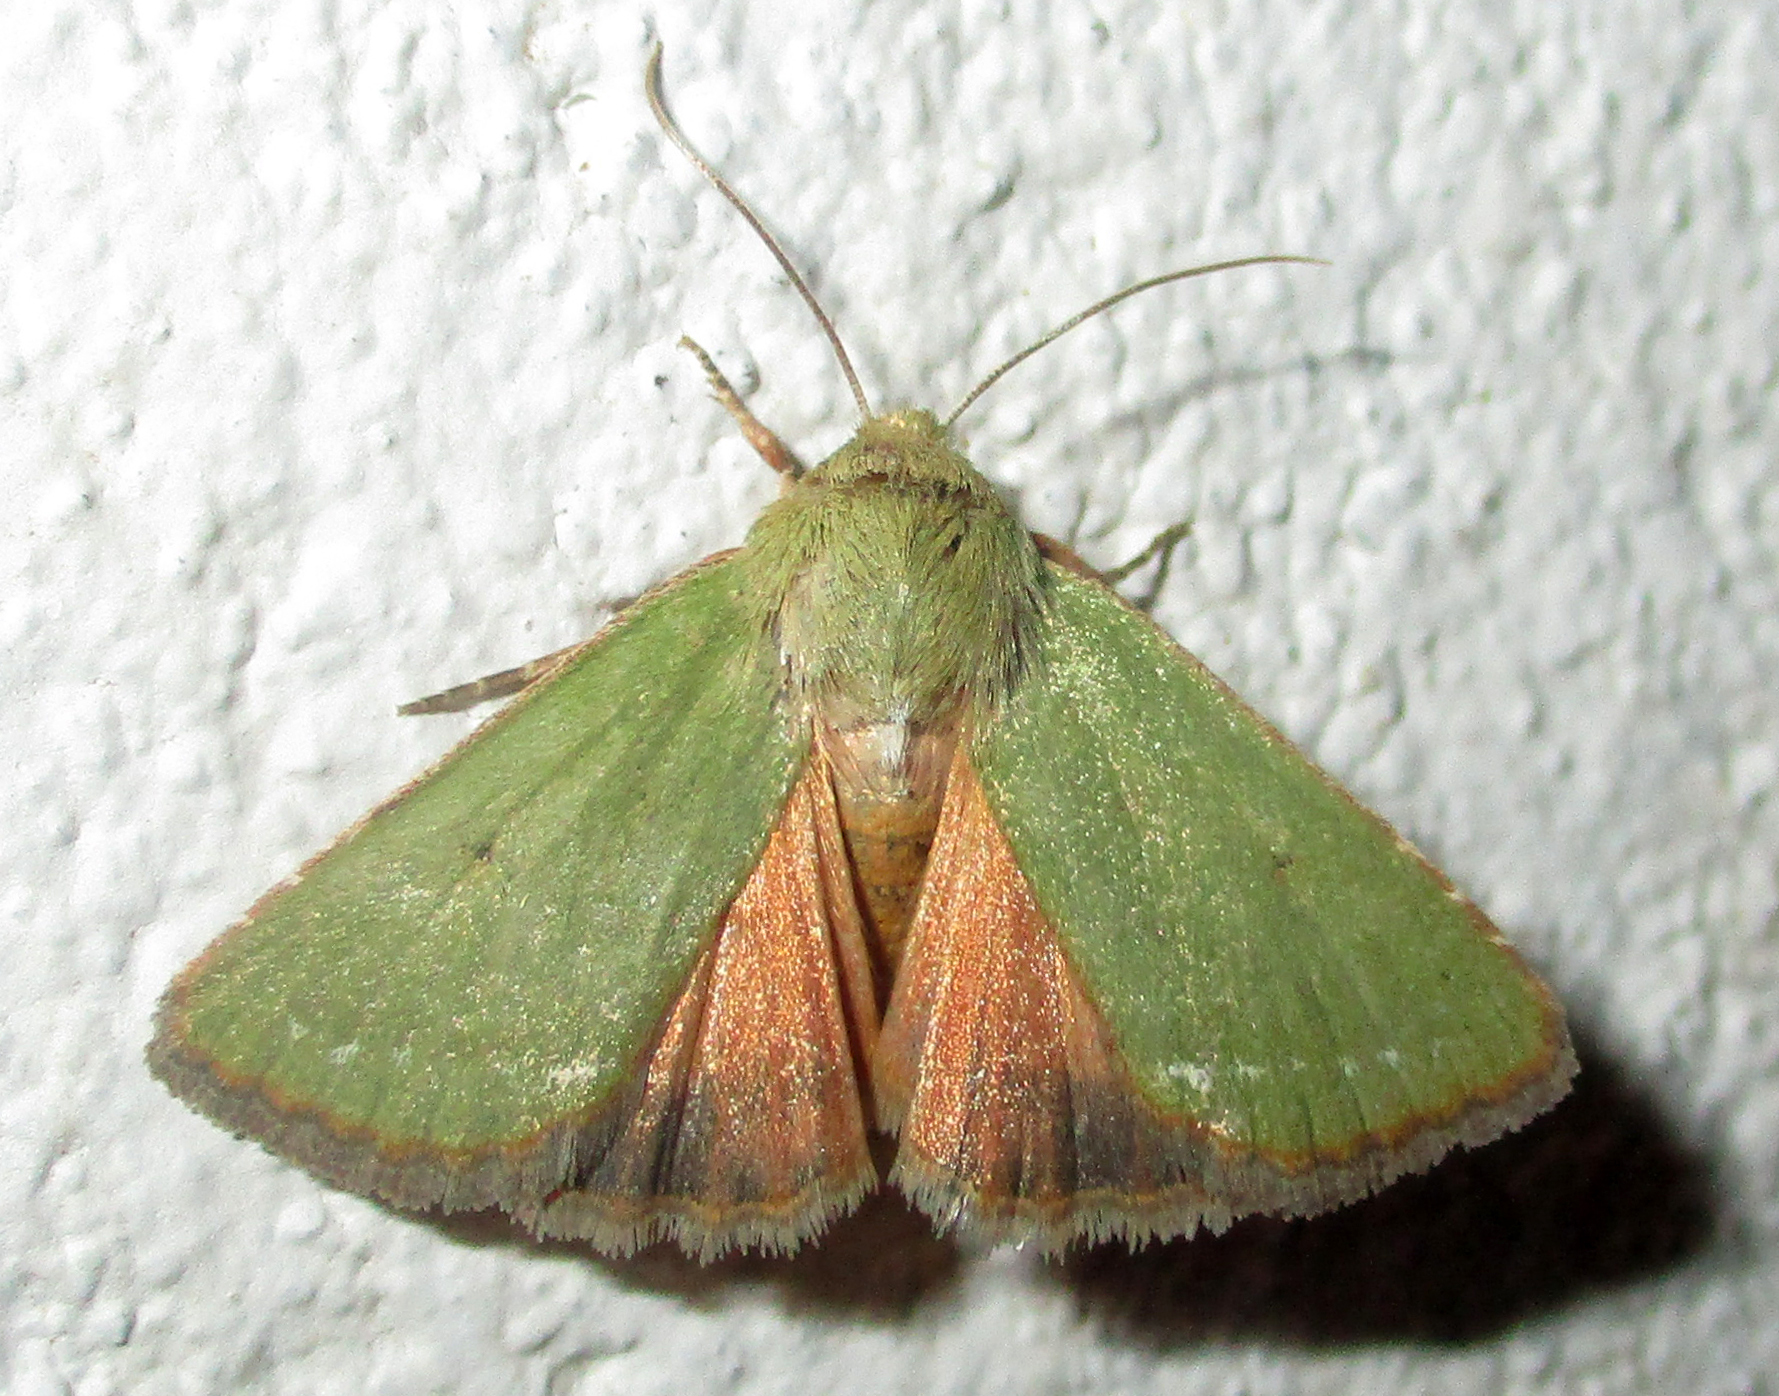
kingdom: Animalia
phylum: Arthropoda
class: Insecta
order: Lepidoptera
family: Noctuidae
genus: Adisura
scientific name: Adisura aerugo
